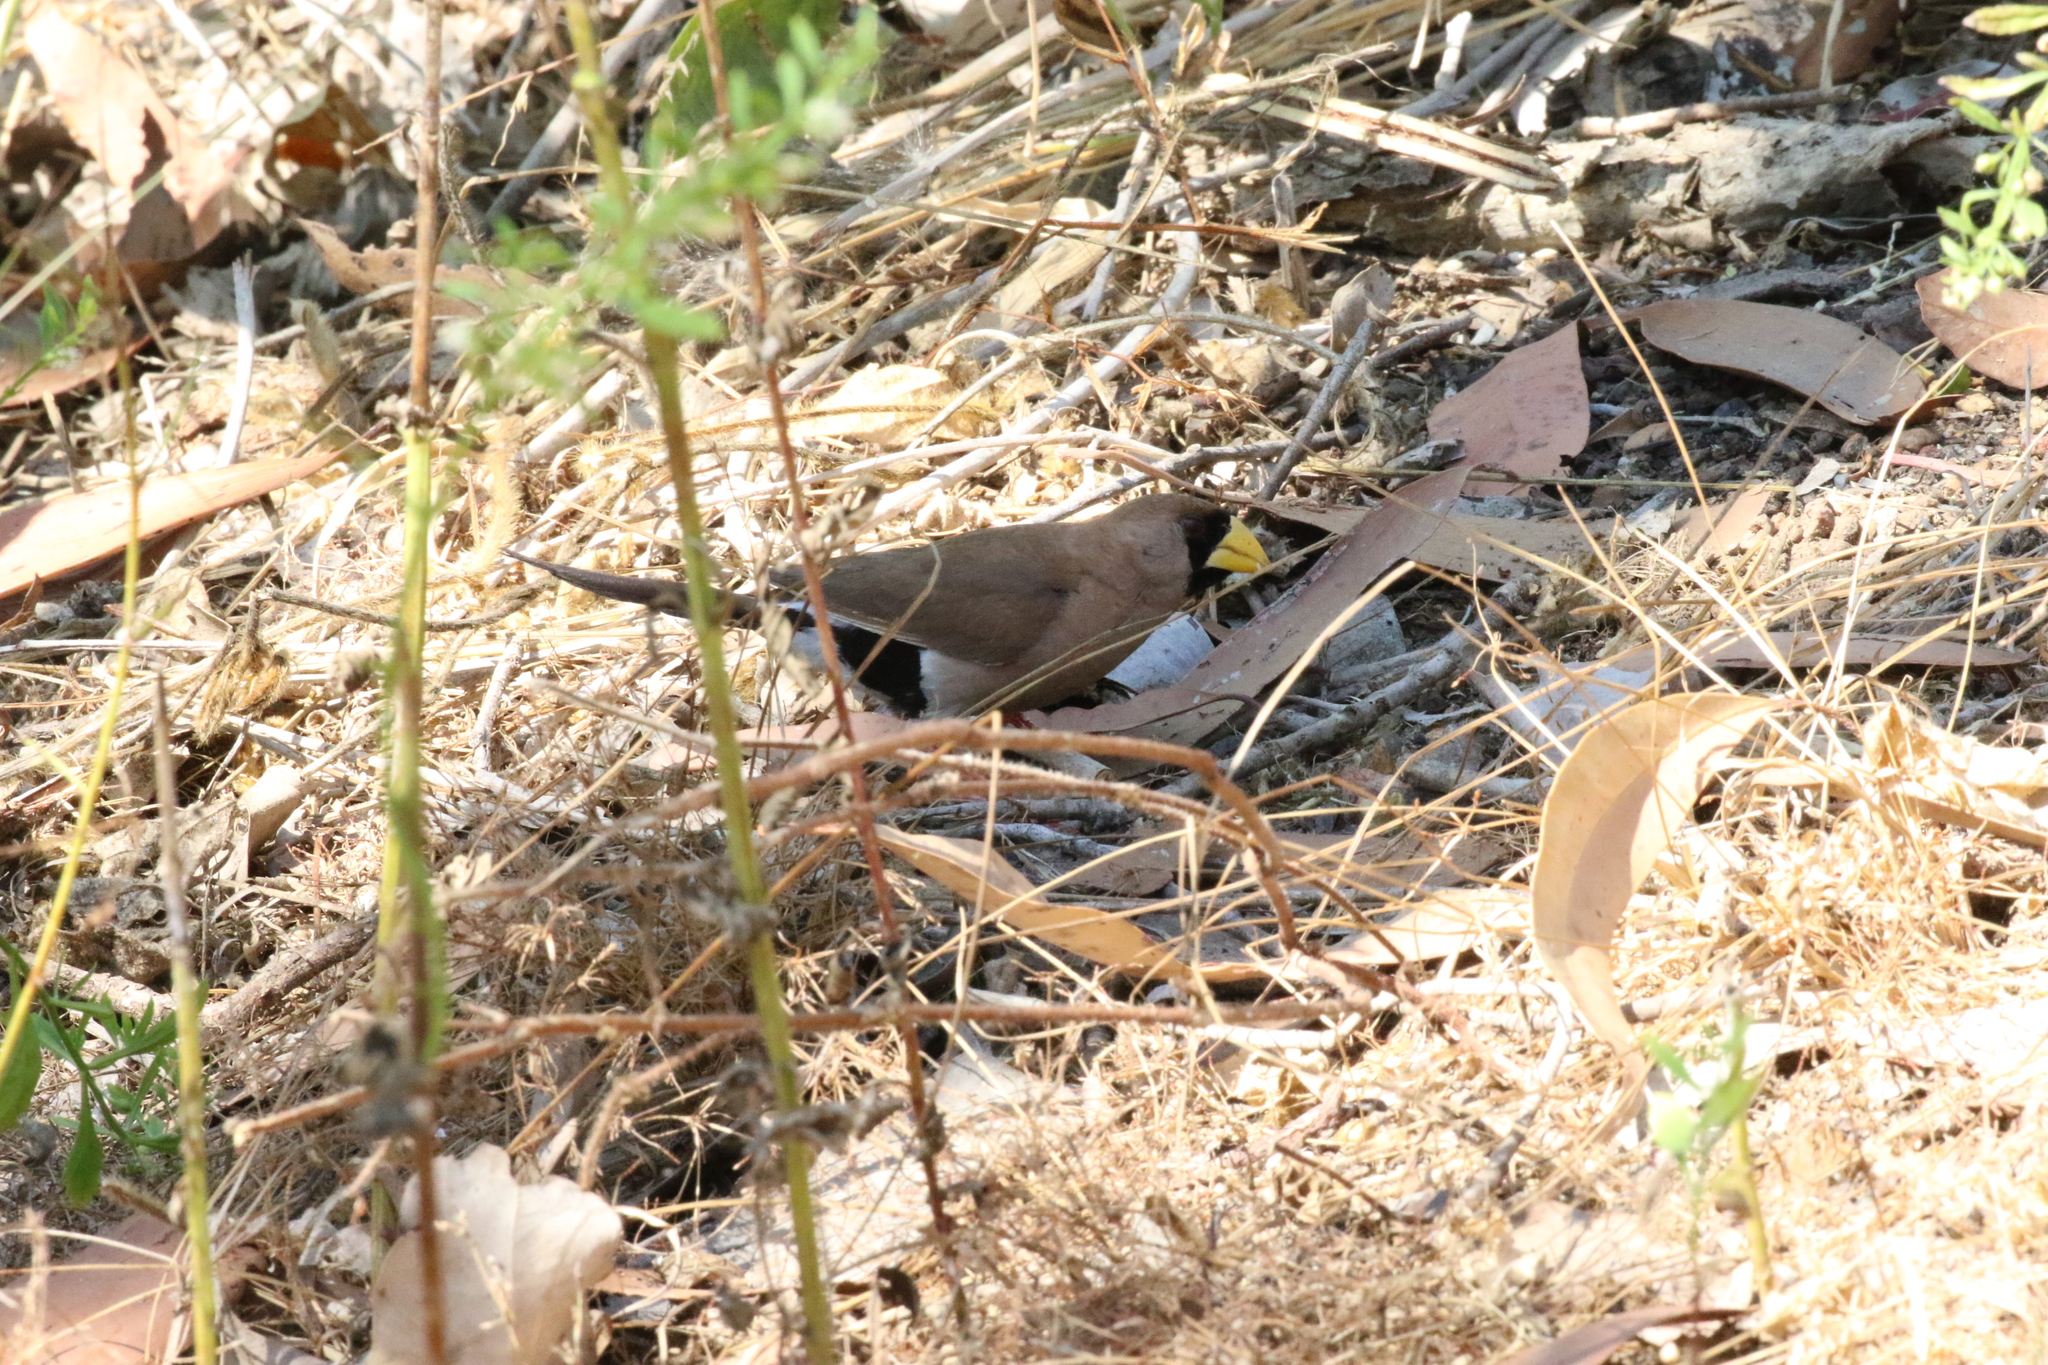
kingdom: Animalia
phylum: Chordata
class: Aves
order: Passeriformes
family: Estrildidae
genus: Poephila
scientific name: Poephila personata
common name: Masked finch
